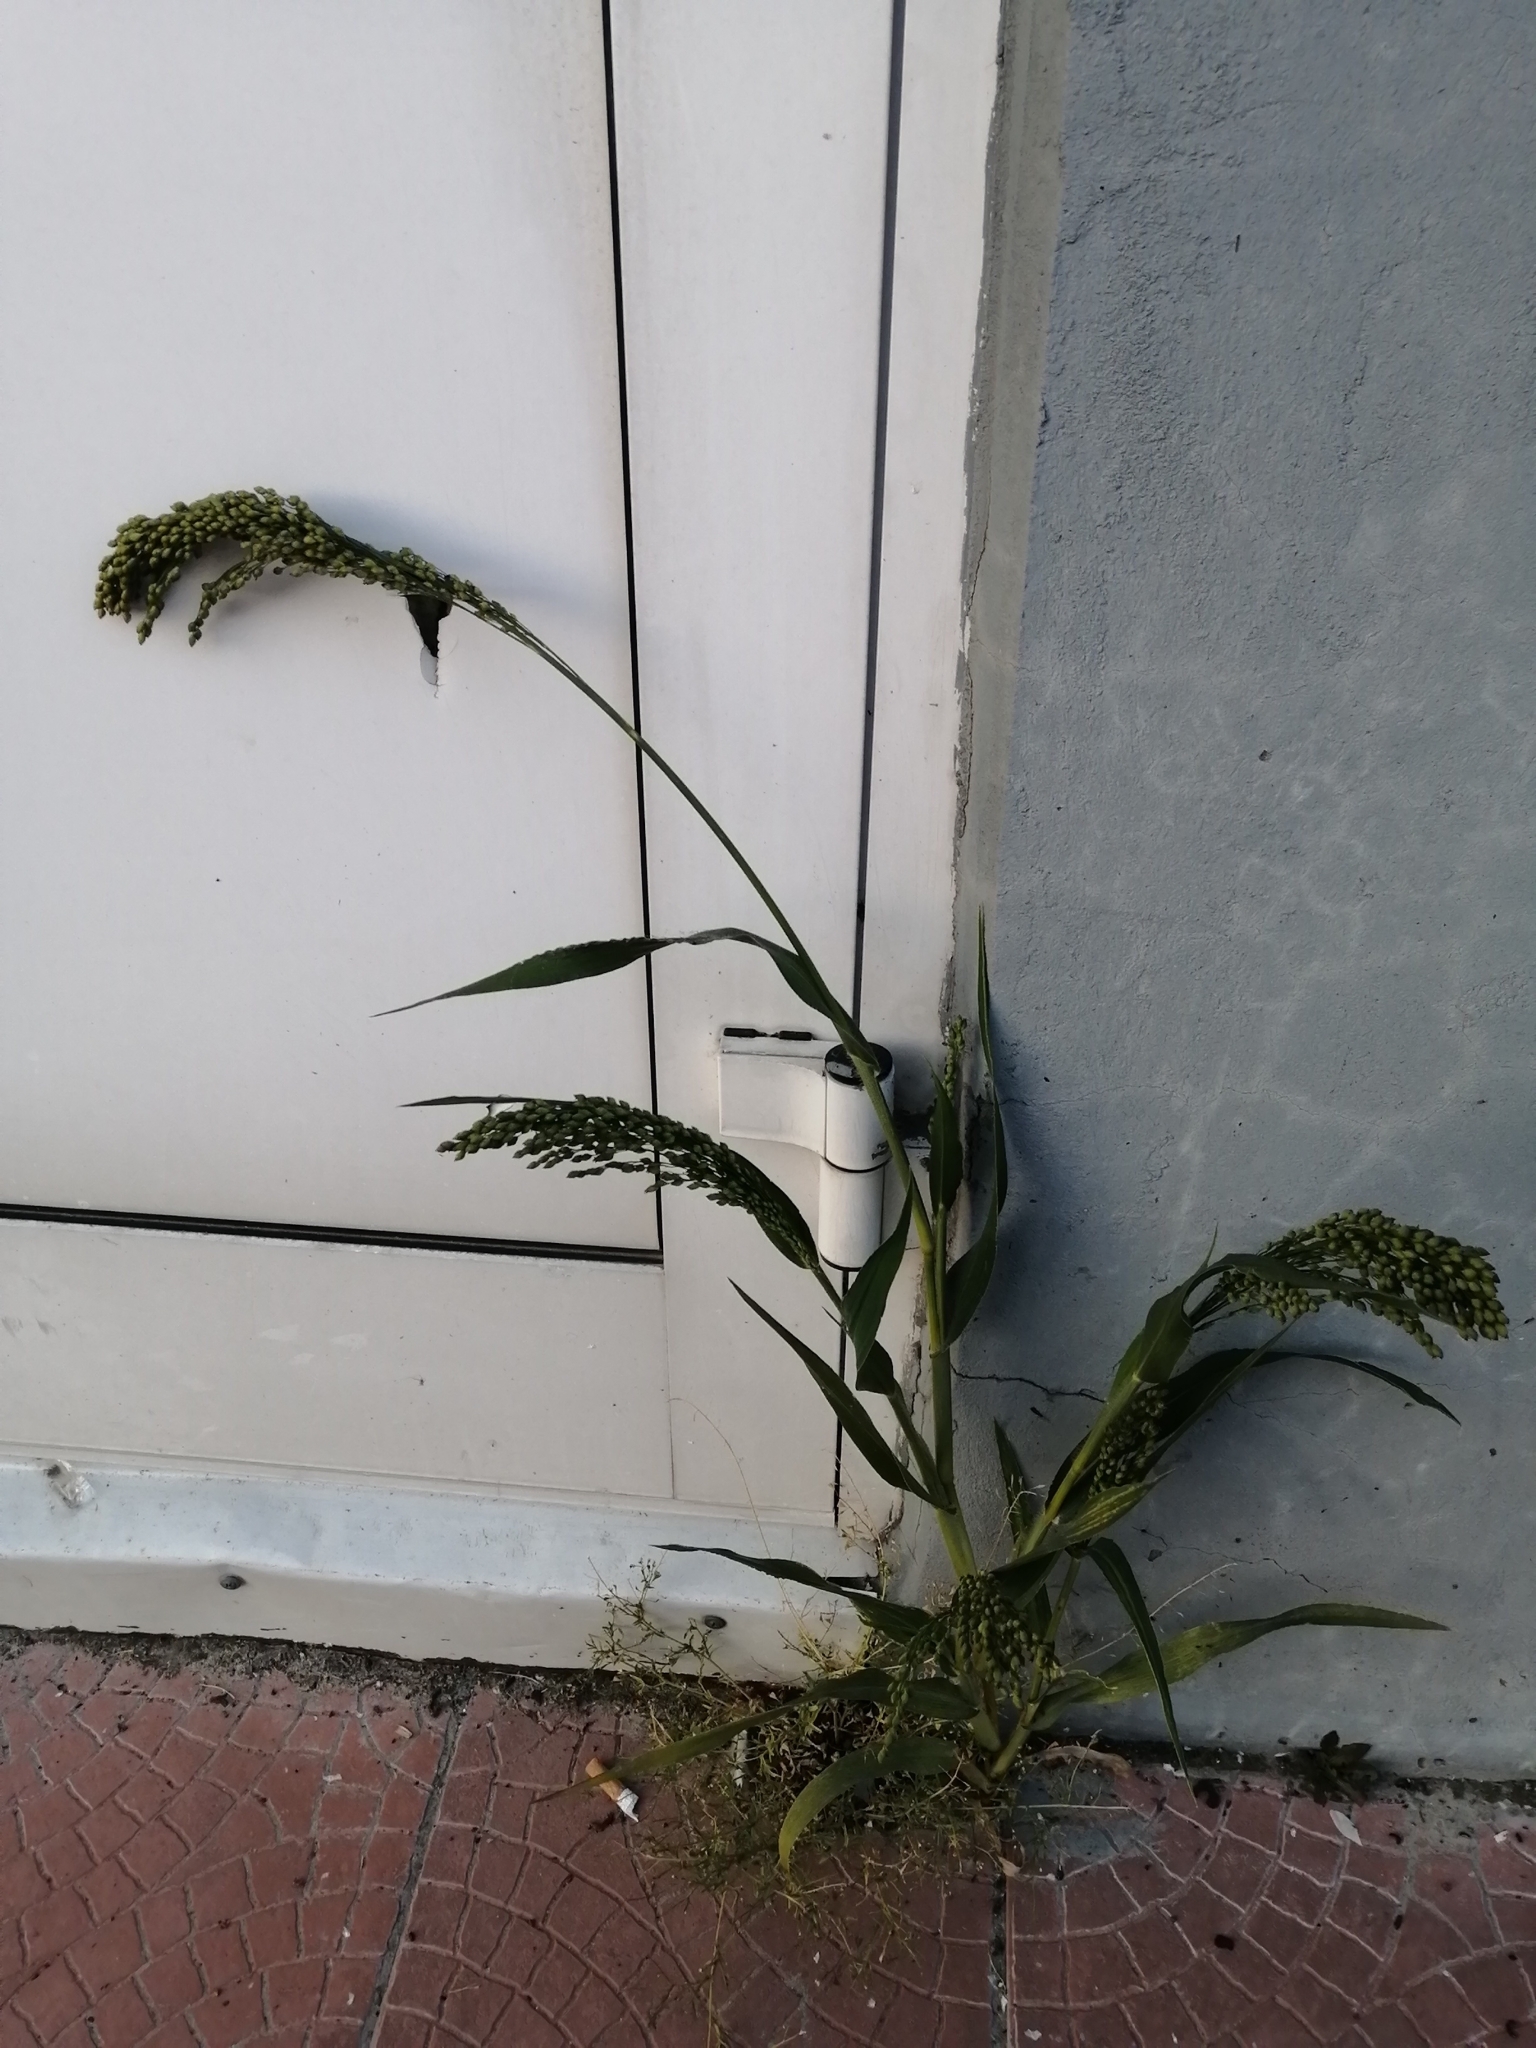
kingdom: Plantae
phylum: Tracheophyta
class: Liliopsida
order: Poales
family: Poaceae
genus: Panicum
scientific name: Panicum miliaceum
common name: Common millet
